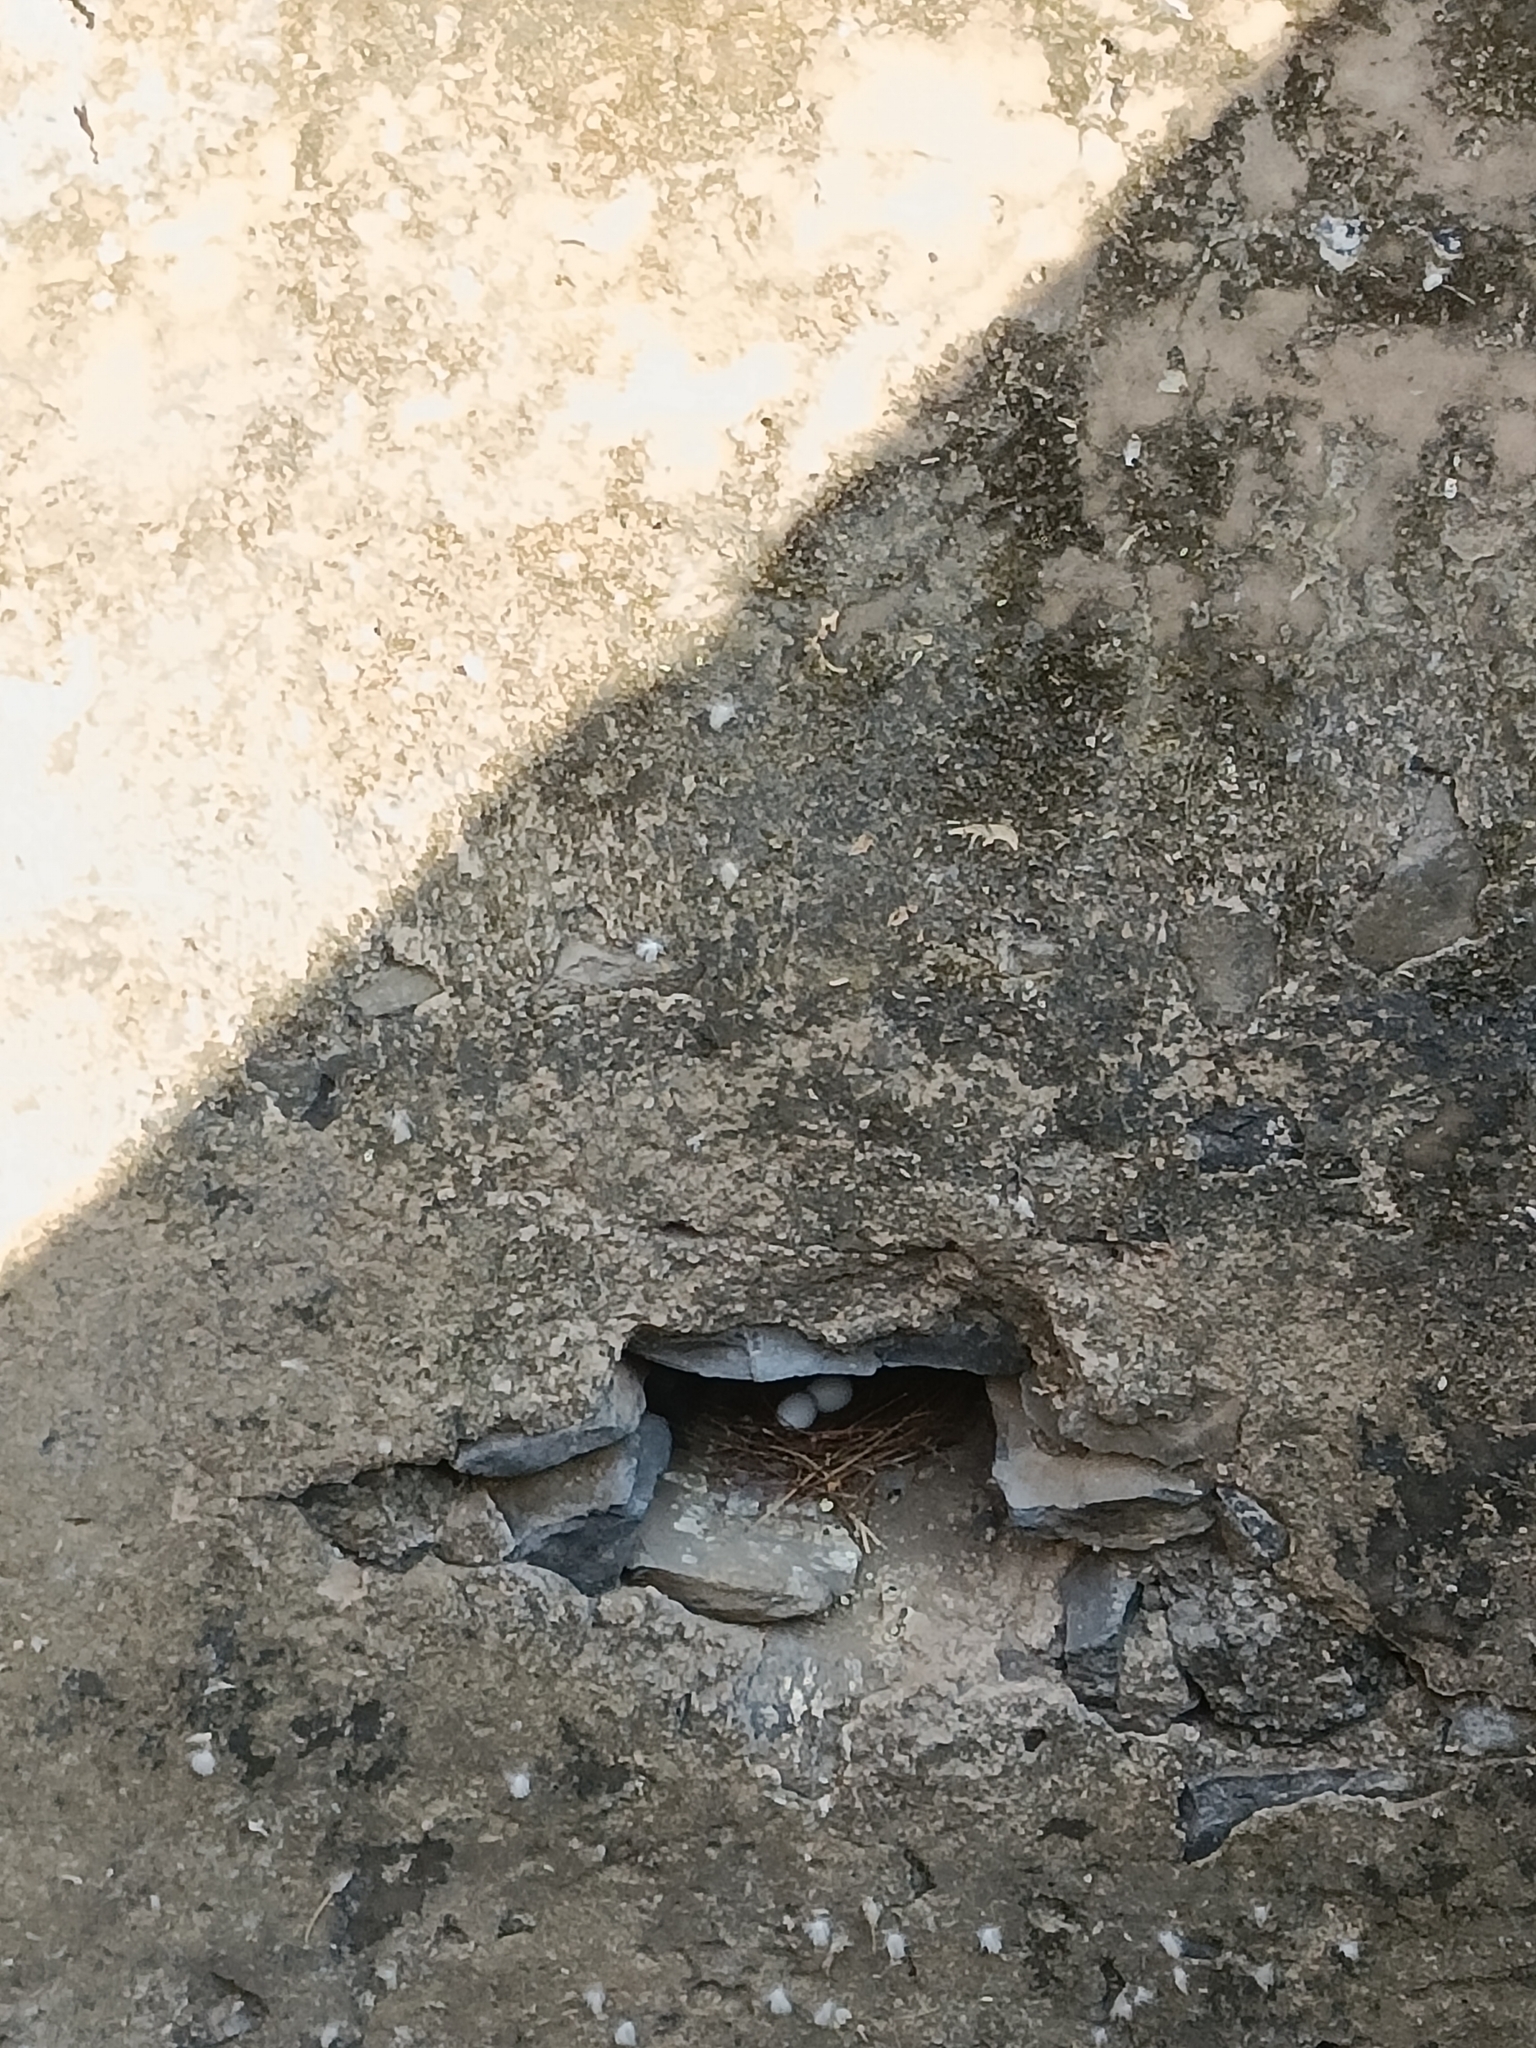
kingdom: Animalia
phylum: Chordata
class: Aves
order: Columbiformes
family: Columbidae
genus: Columba
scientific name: Columba livia
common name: Rock pigeon
